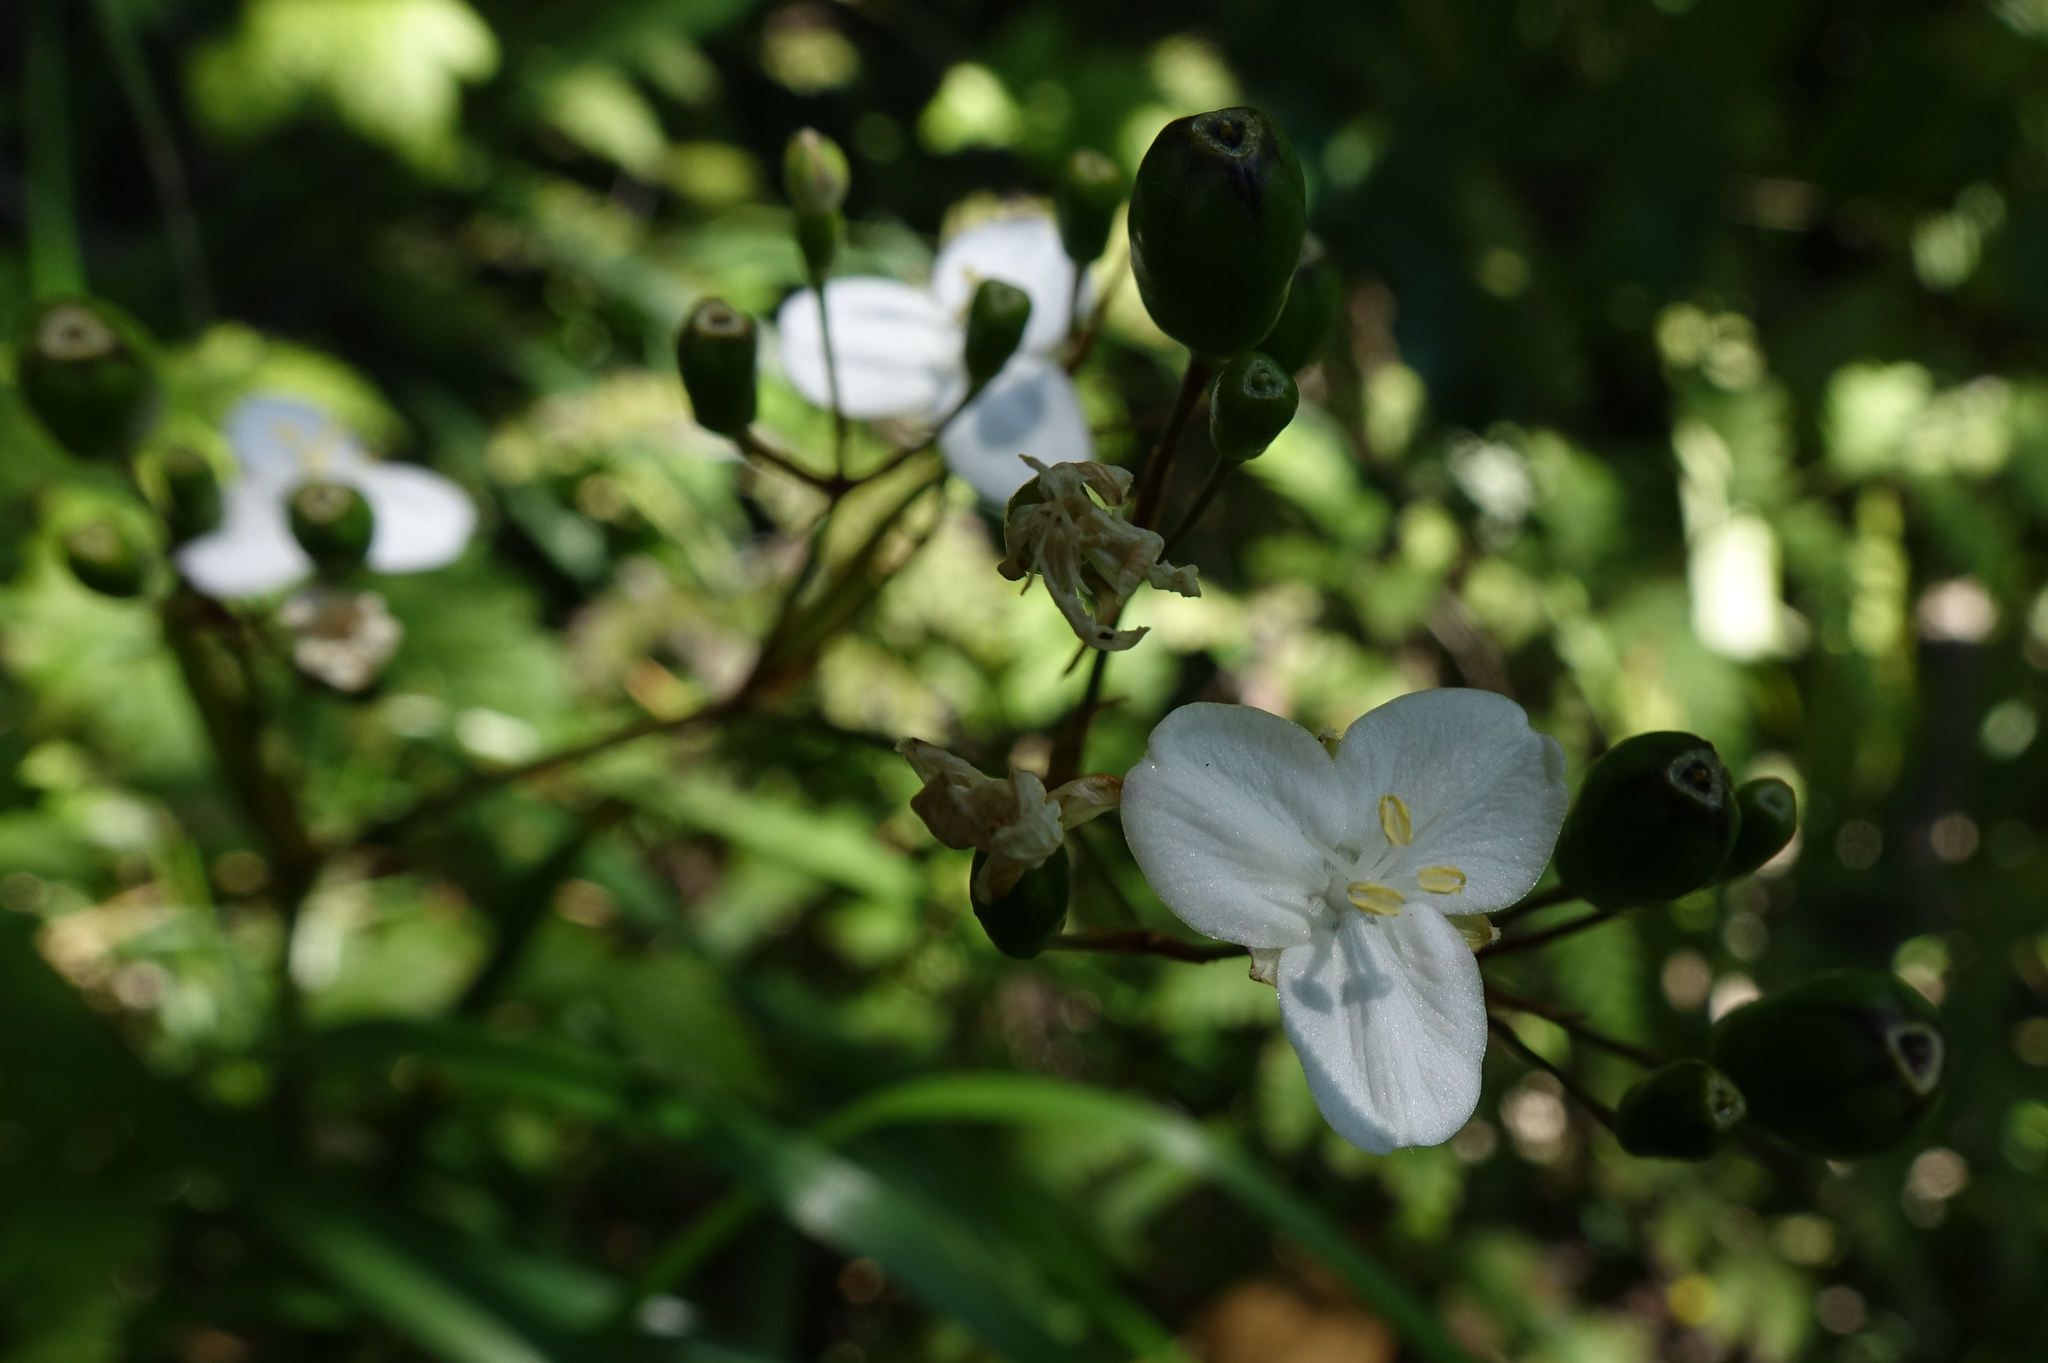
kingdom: Plantae
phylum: Tracheophyta
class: Liliopsida
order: Asparagales
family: Iridaceae
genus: Libertia
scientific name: Libertia ixioides
